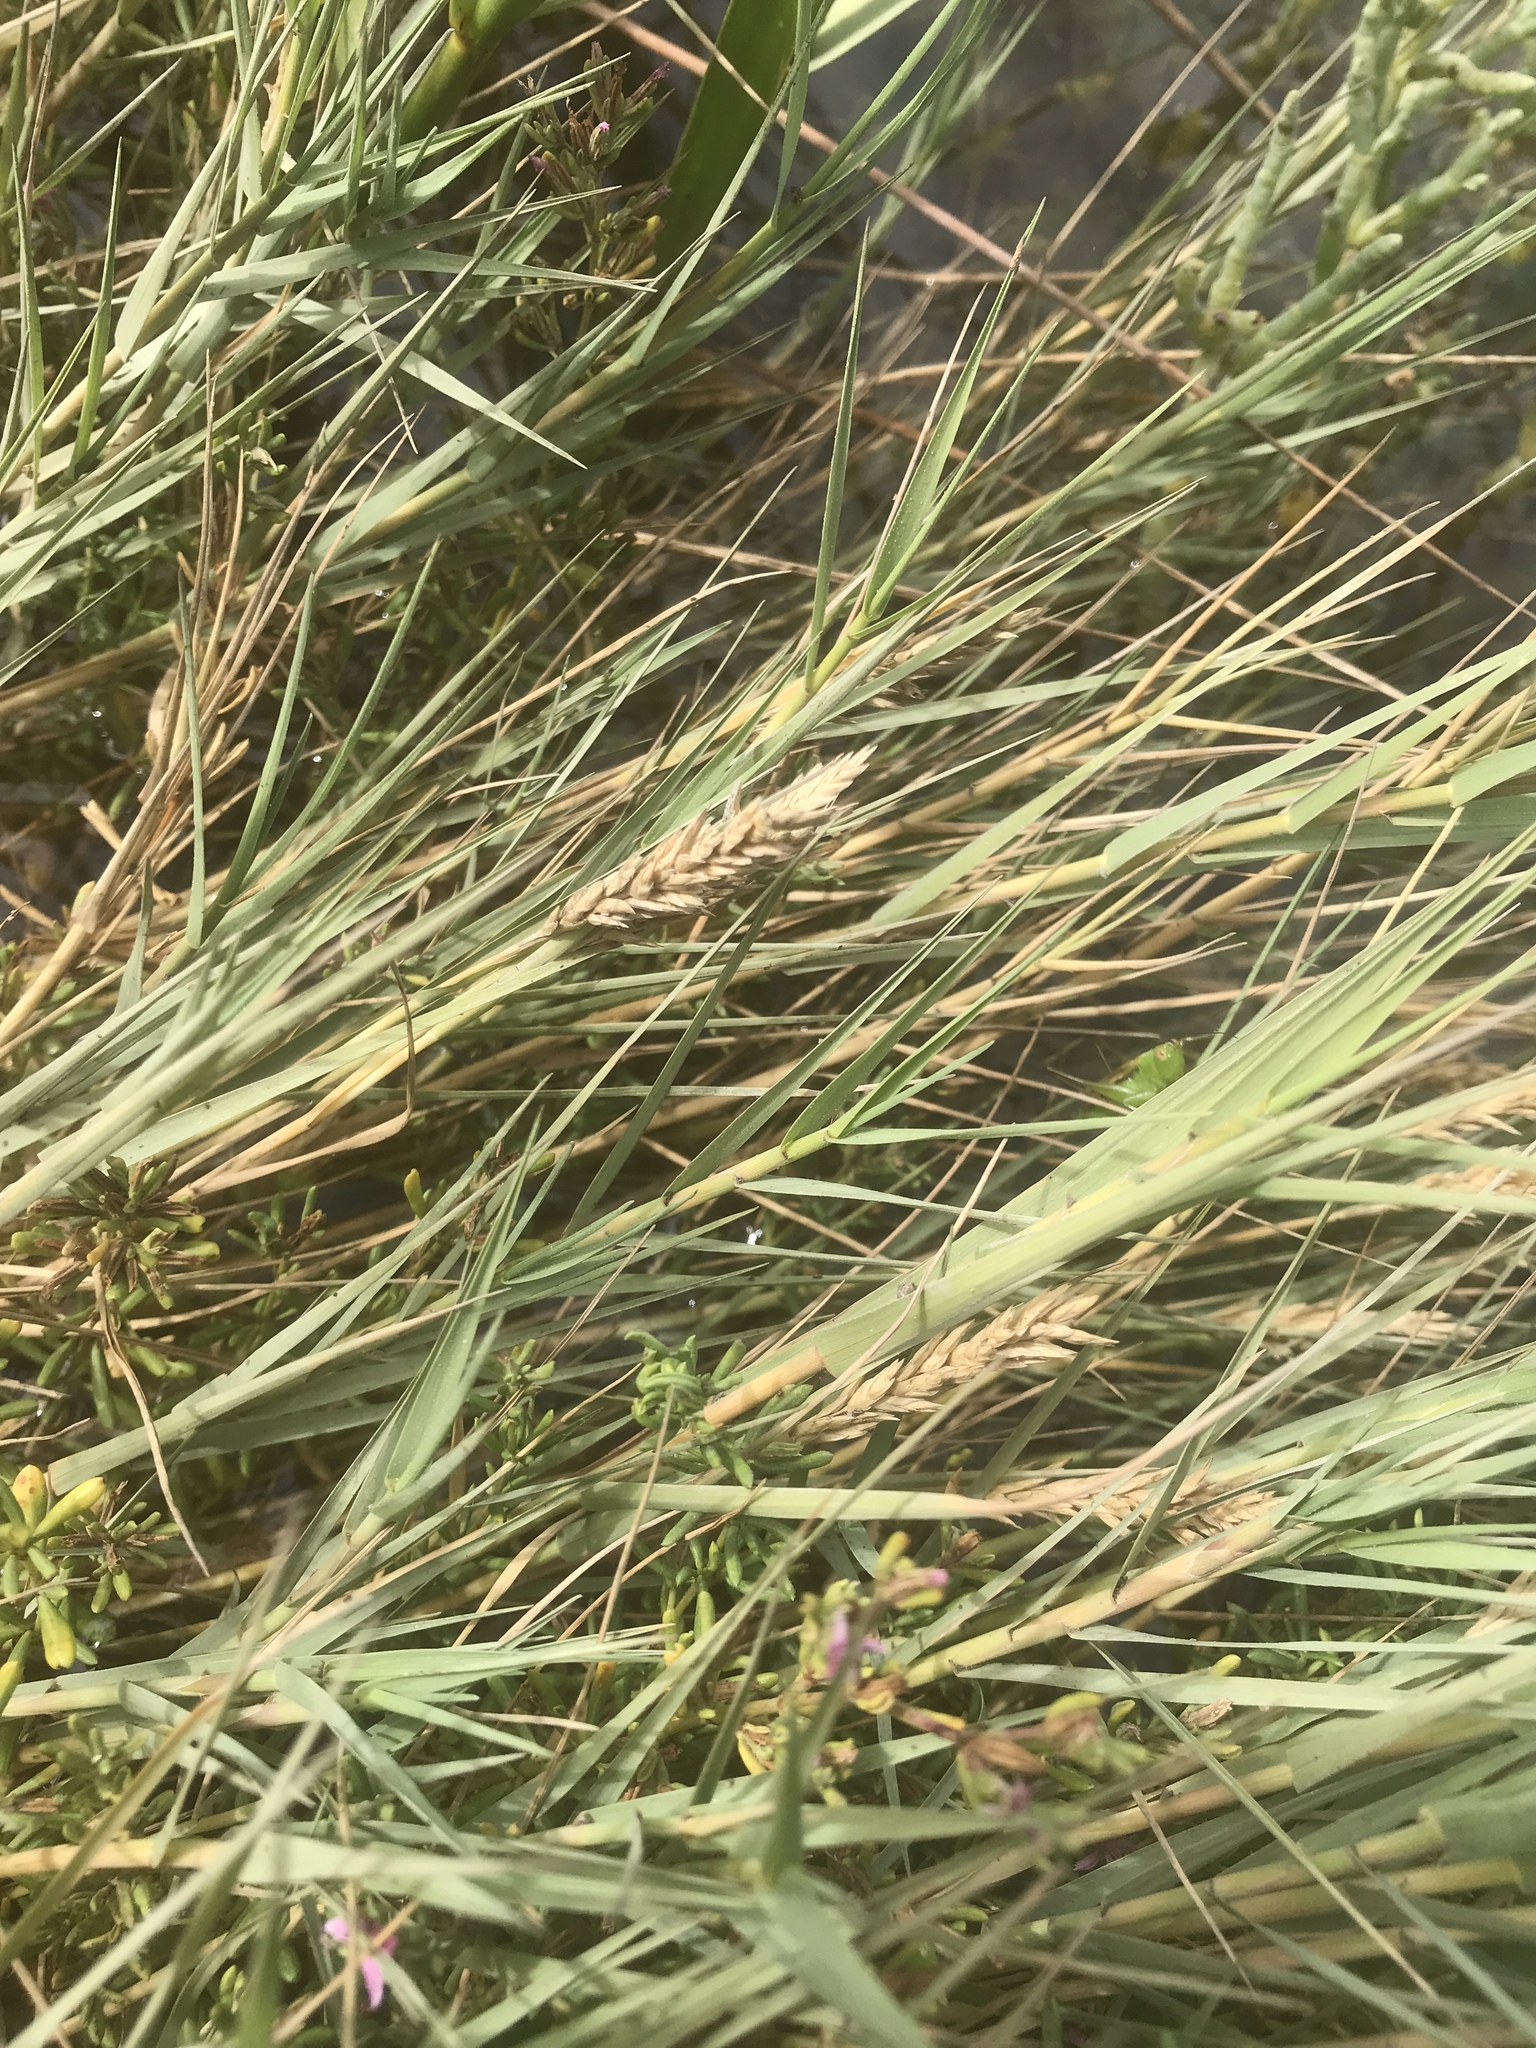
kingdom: Plantae
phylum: Tracheophyta
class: Liliopsida
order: Poales
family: Poaceae
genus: Distichlis
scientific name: Distichlis spicata
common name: Saltgrass
